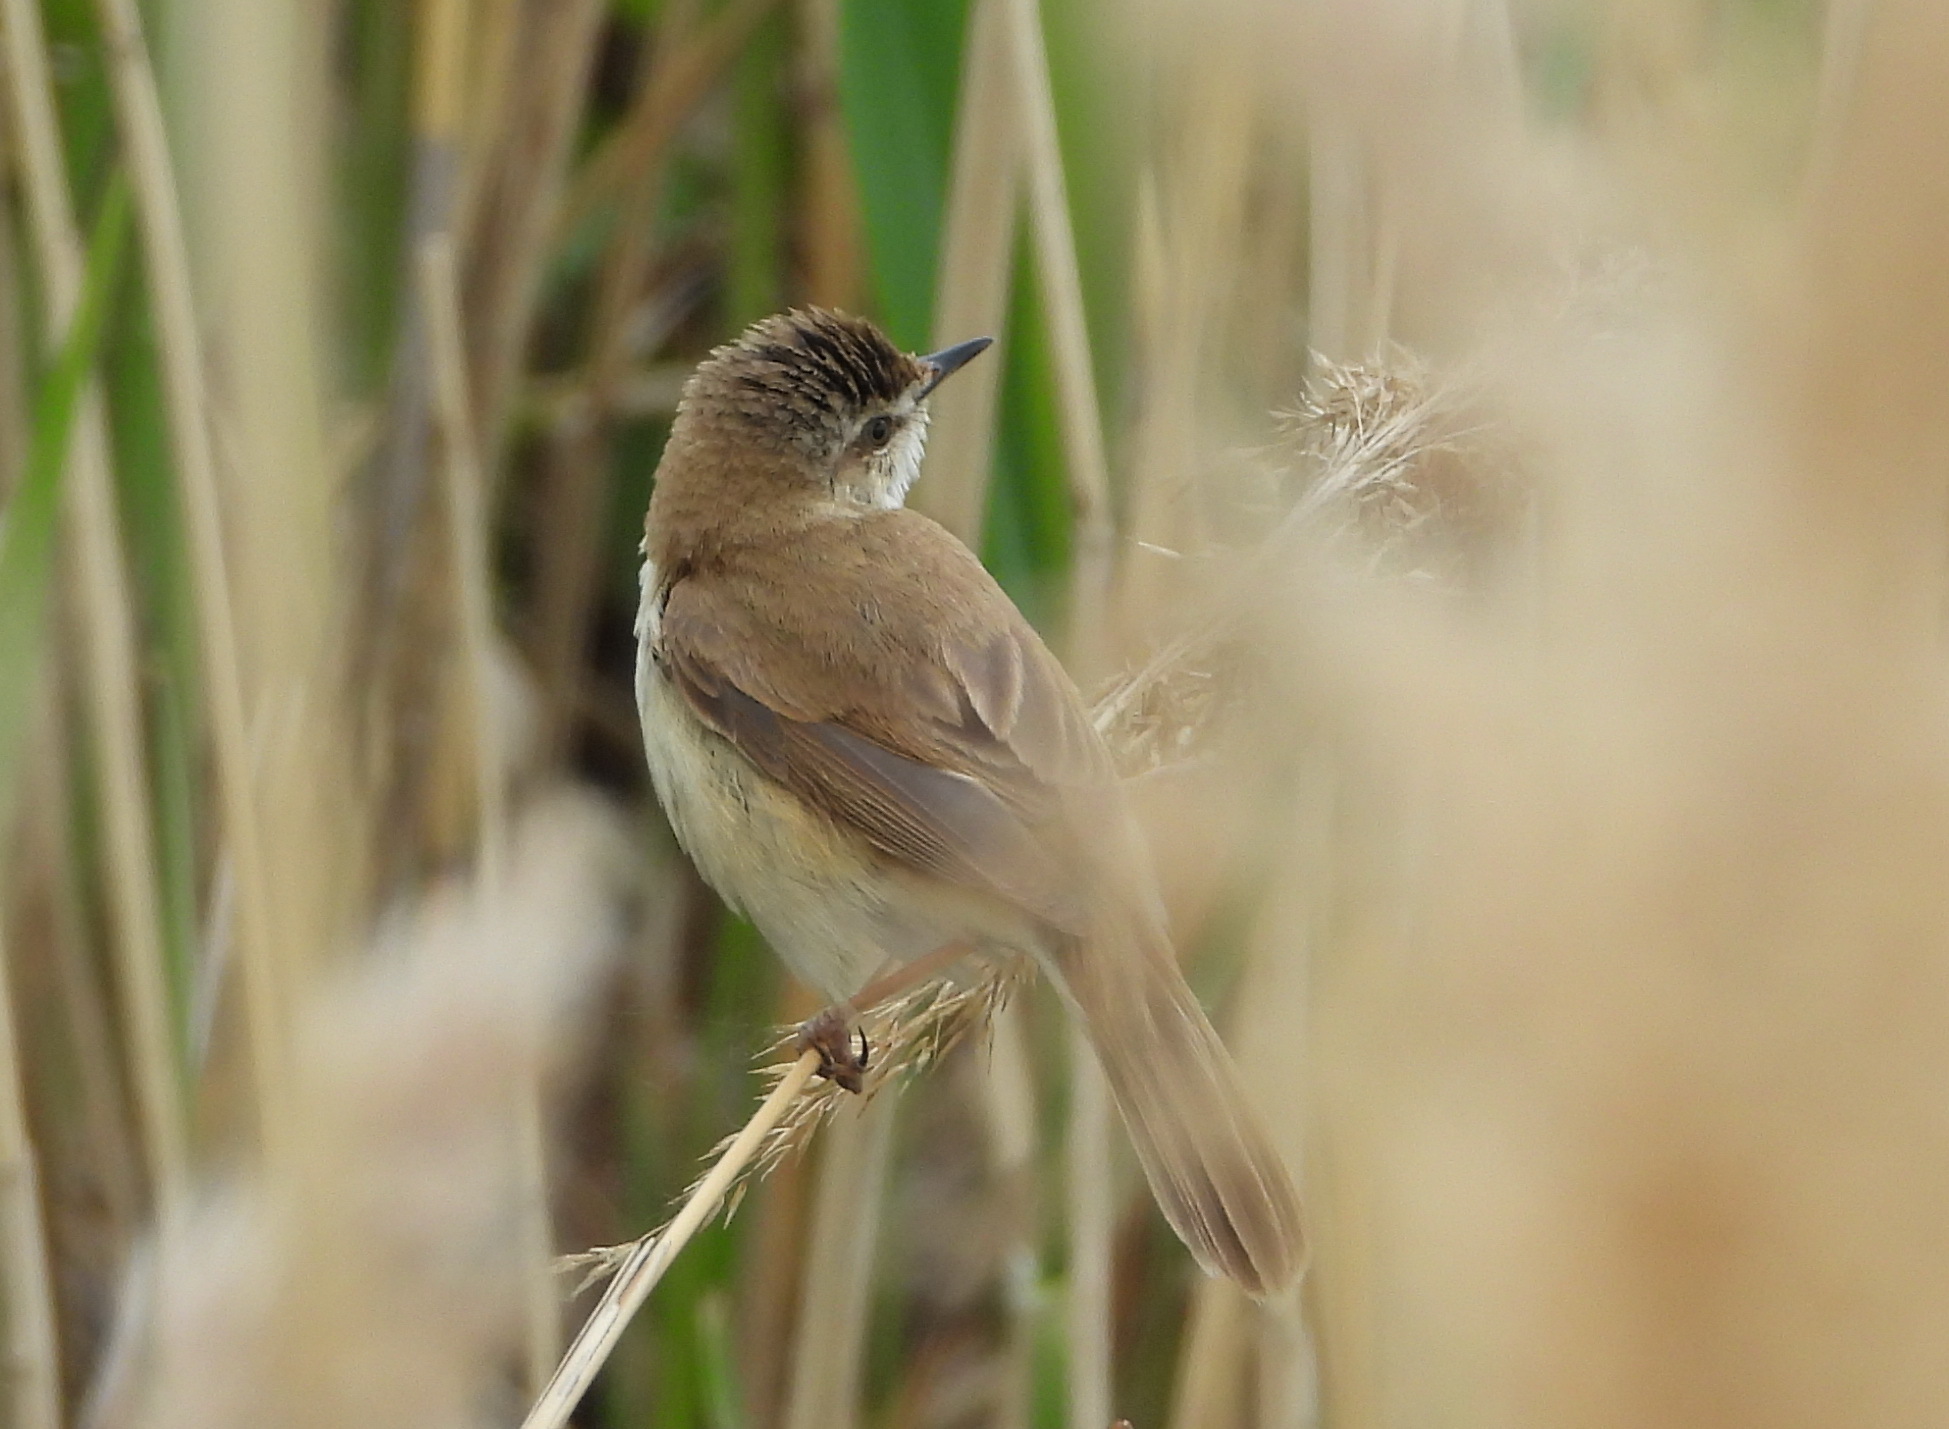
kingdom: Animalia
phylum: Chordata
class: Aves
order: Passeriformes
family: Acrocephalidae
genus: Acrocephalus
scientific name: Acrocephalus agricola
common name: Paddyfield warbler
